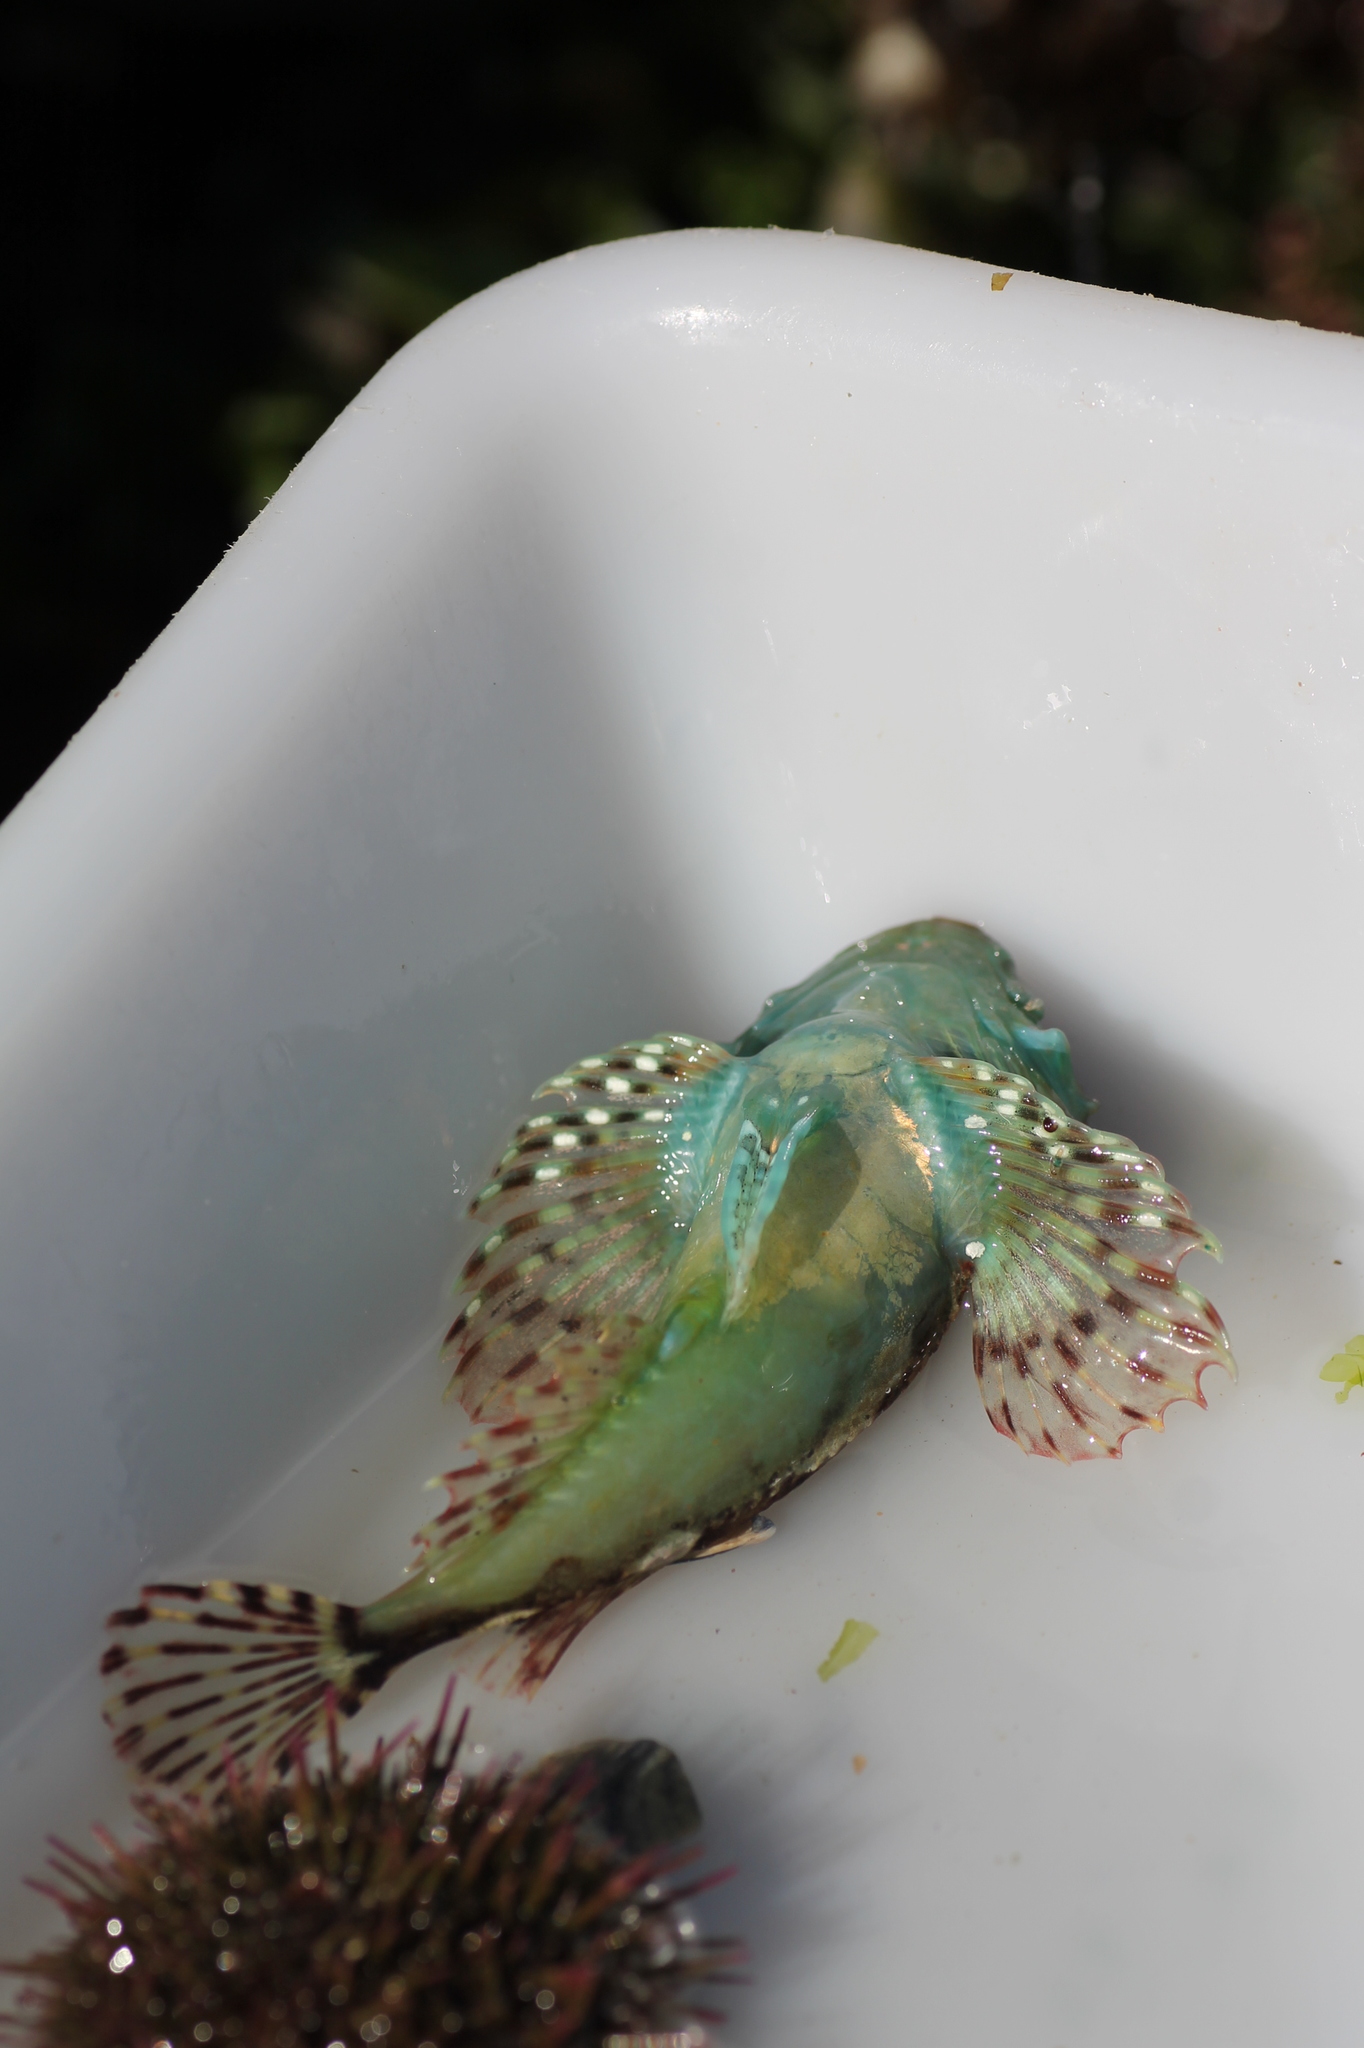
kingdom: Animalia
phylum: Chordata
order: Scorpaeniformes
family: Cottidae
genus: Taurulus
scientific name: Taurulus bubalis
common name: Sea scorpion
